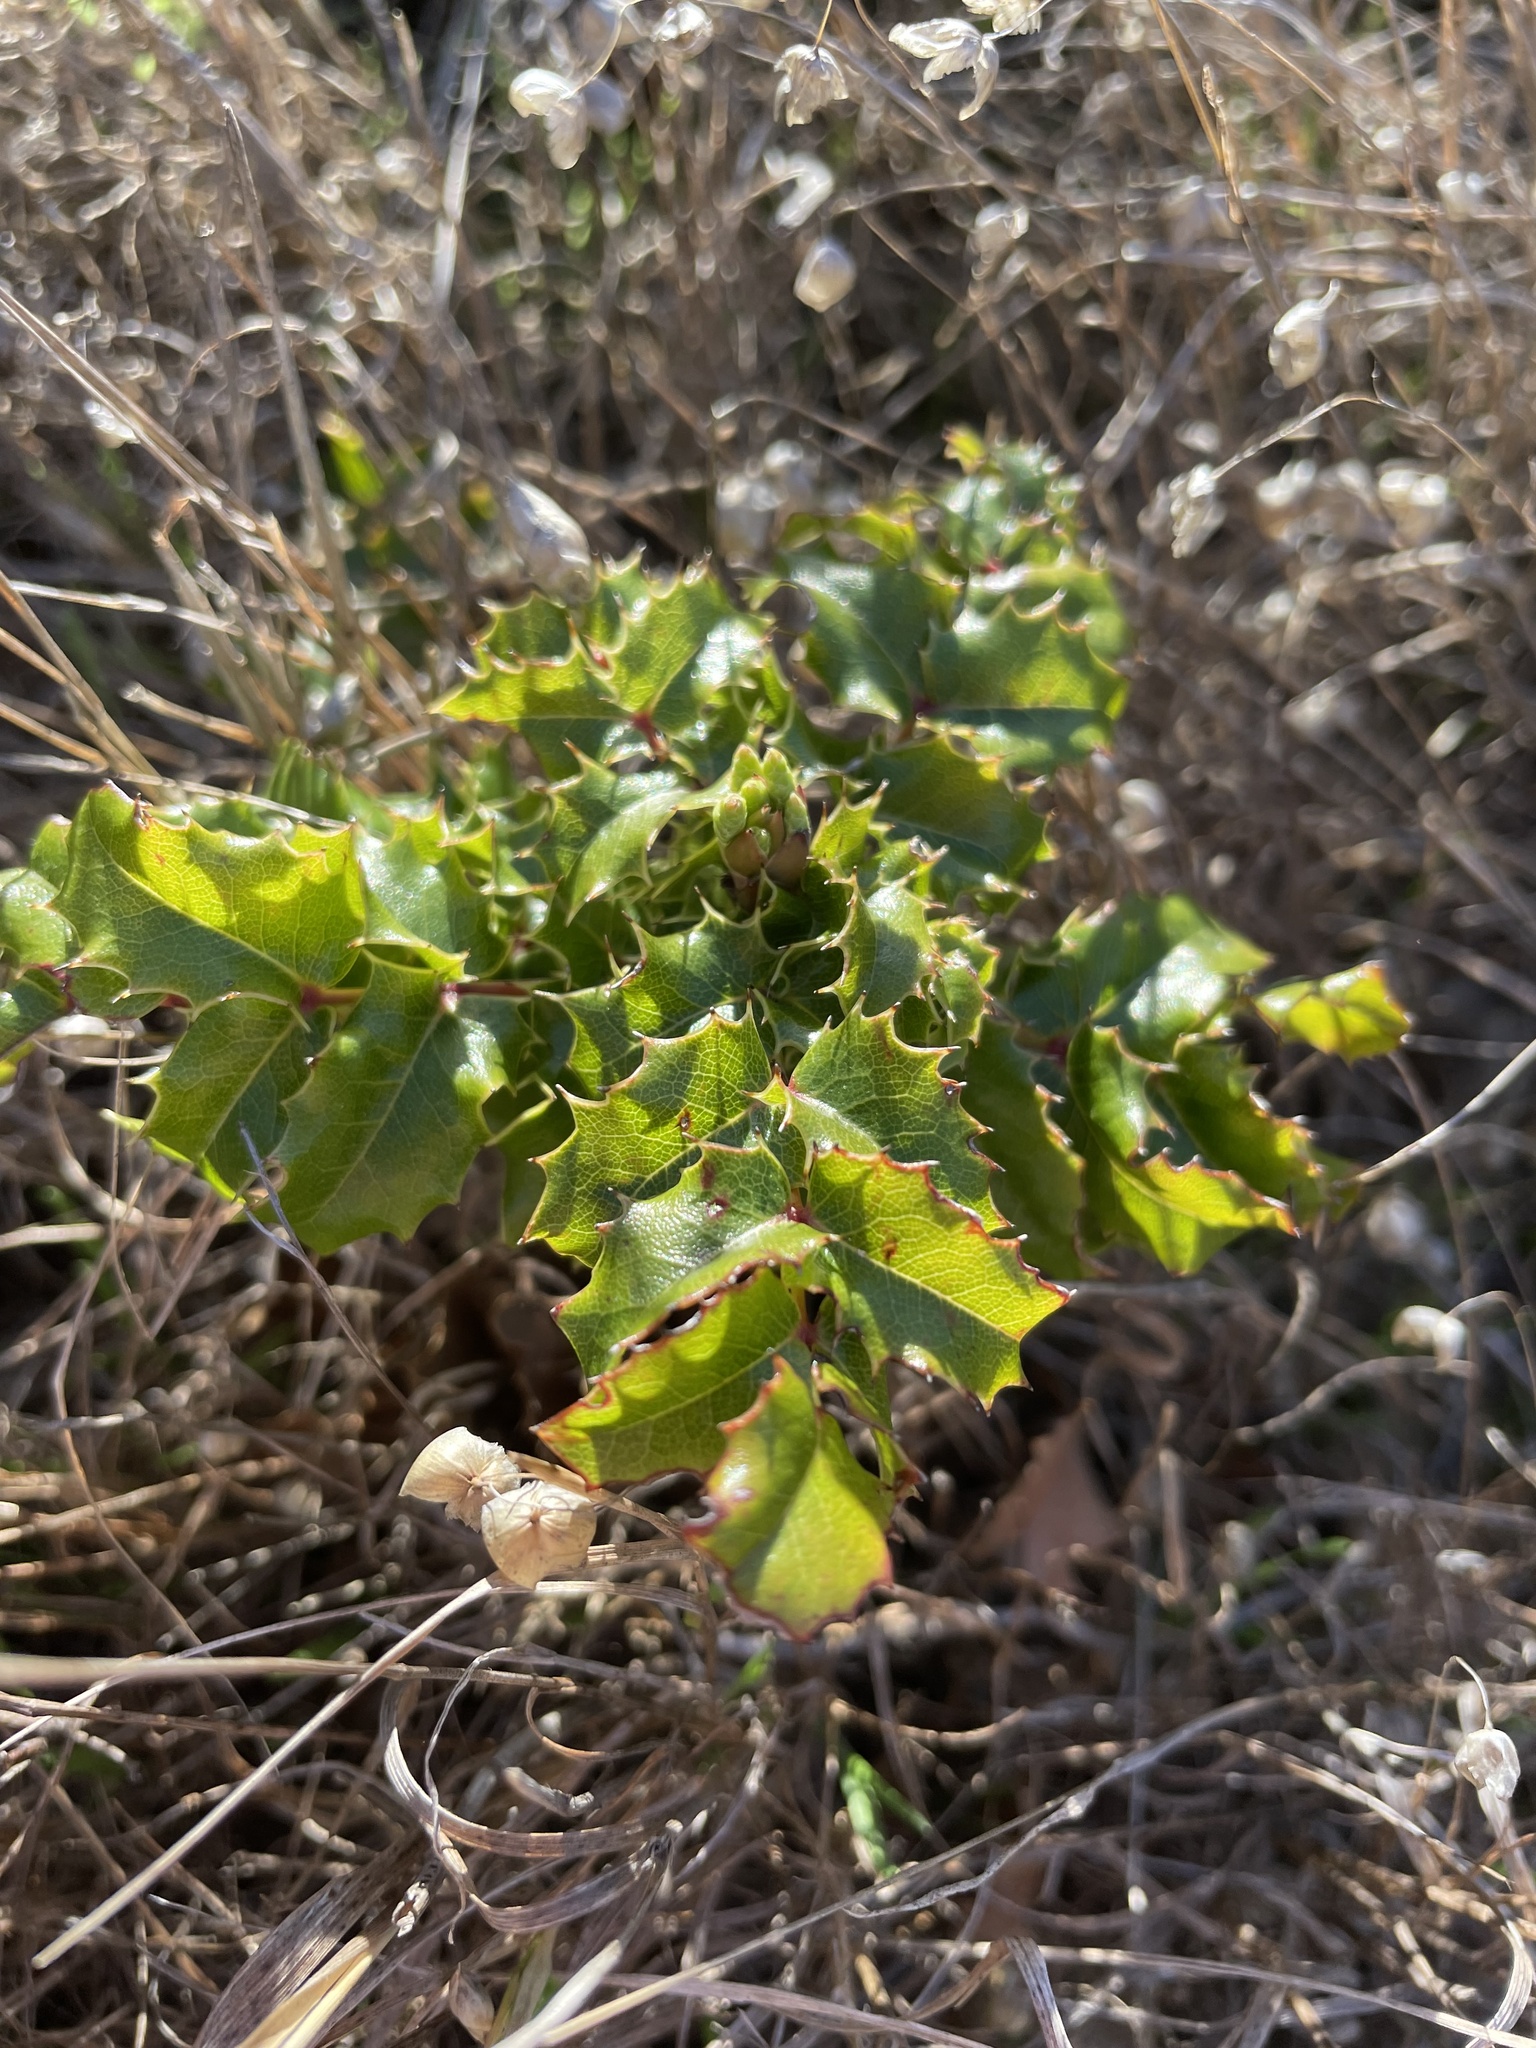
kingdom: Plantae
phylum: Tracheophyta
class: Magnoliopsida
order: Ranunculales
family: Berberidaceae
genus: Mahonia
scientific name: Mahonia
